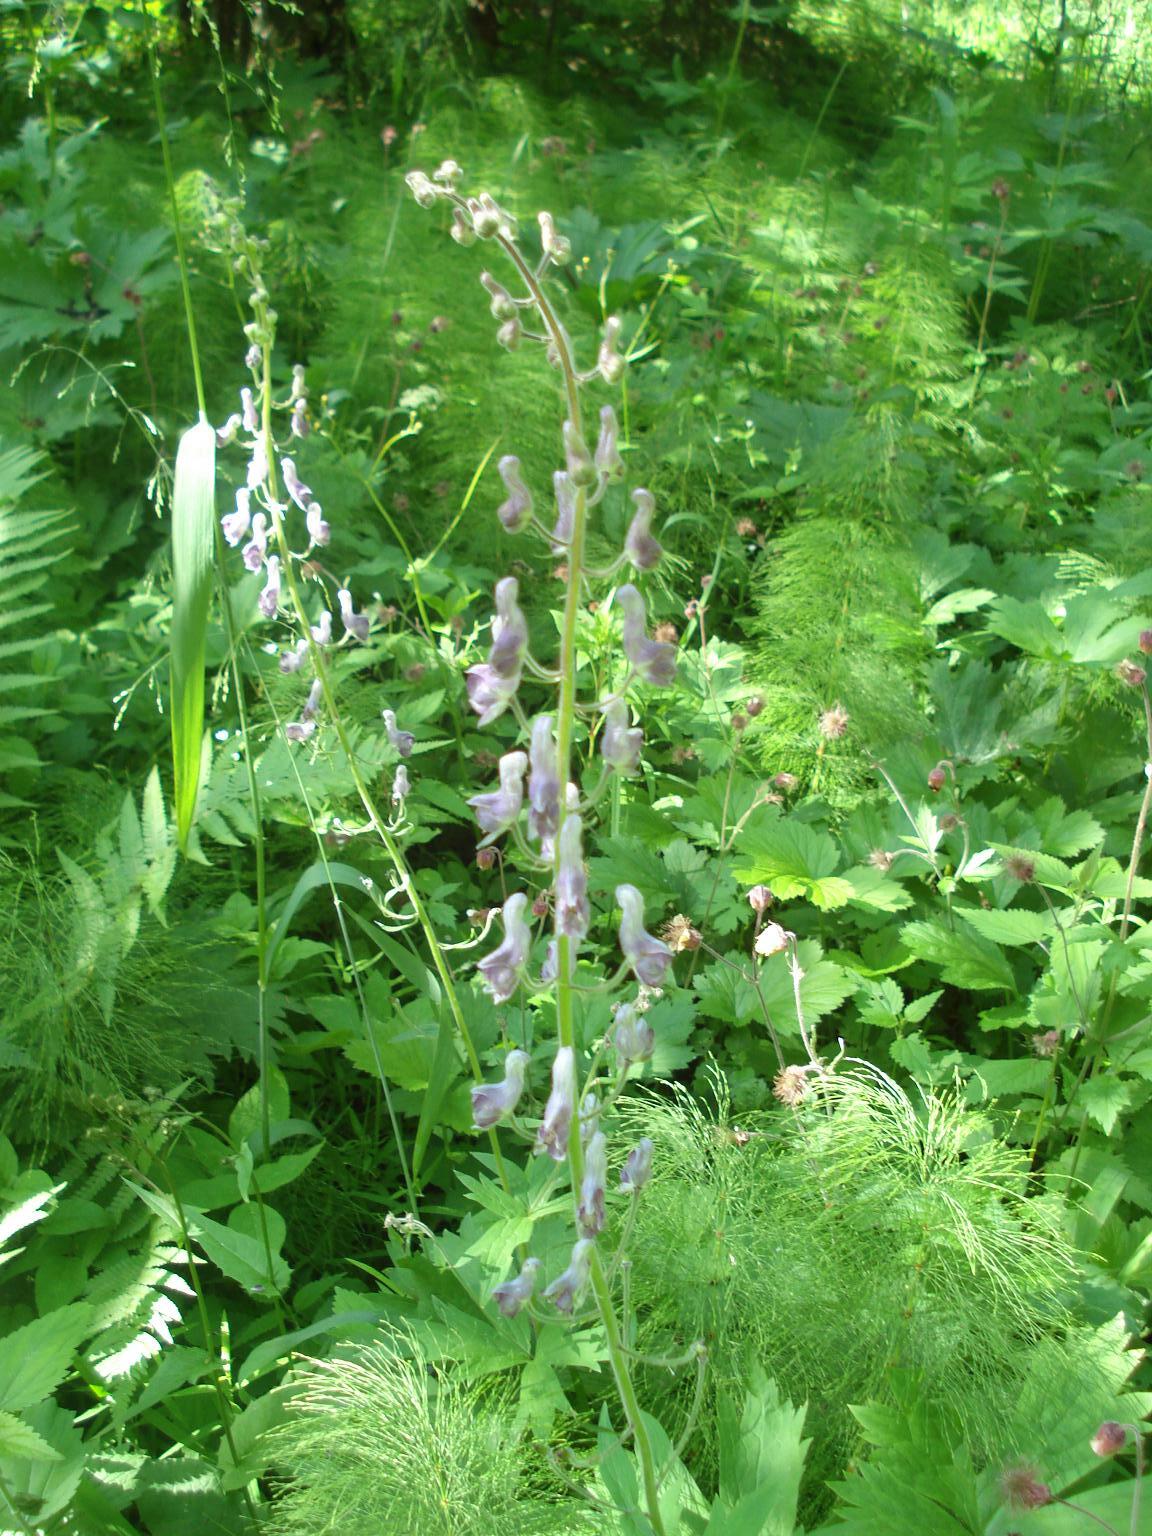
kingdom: Plantae
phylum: Tracheophyta
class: Magnoliopsida
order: Ranunculales
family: Ranunculaceae
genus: Aconitum
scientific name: Aconitum septentrionale
